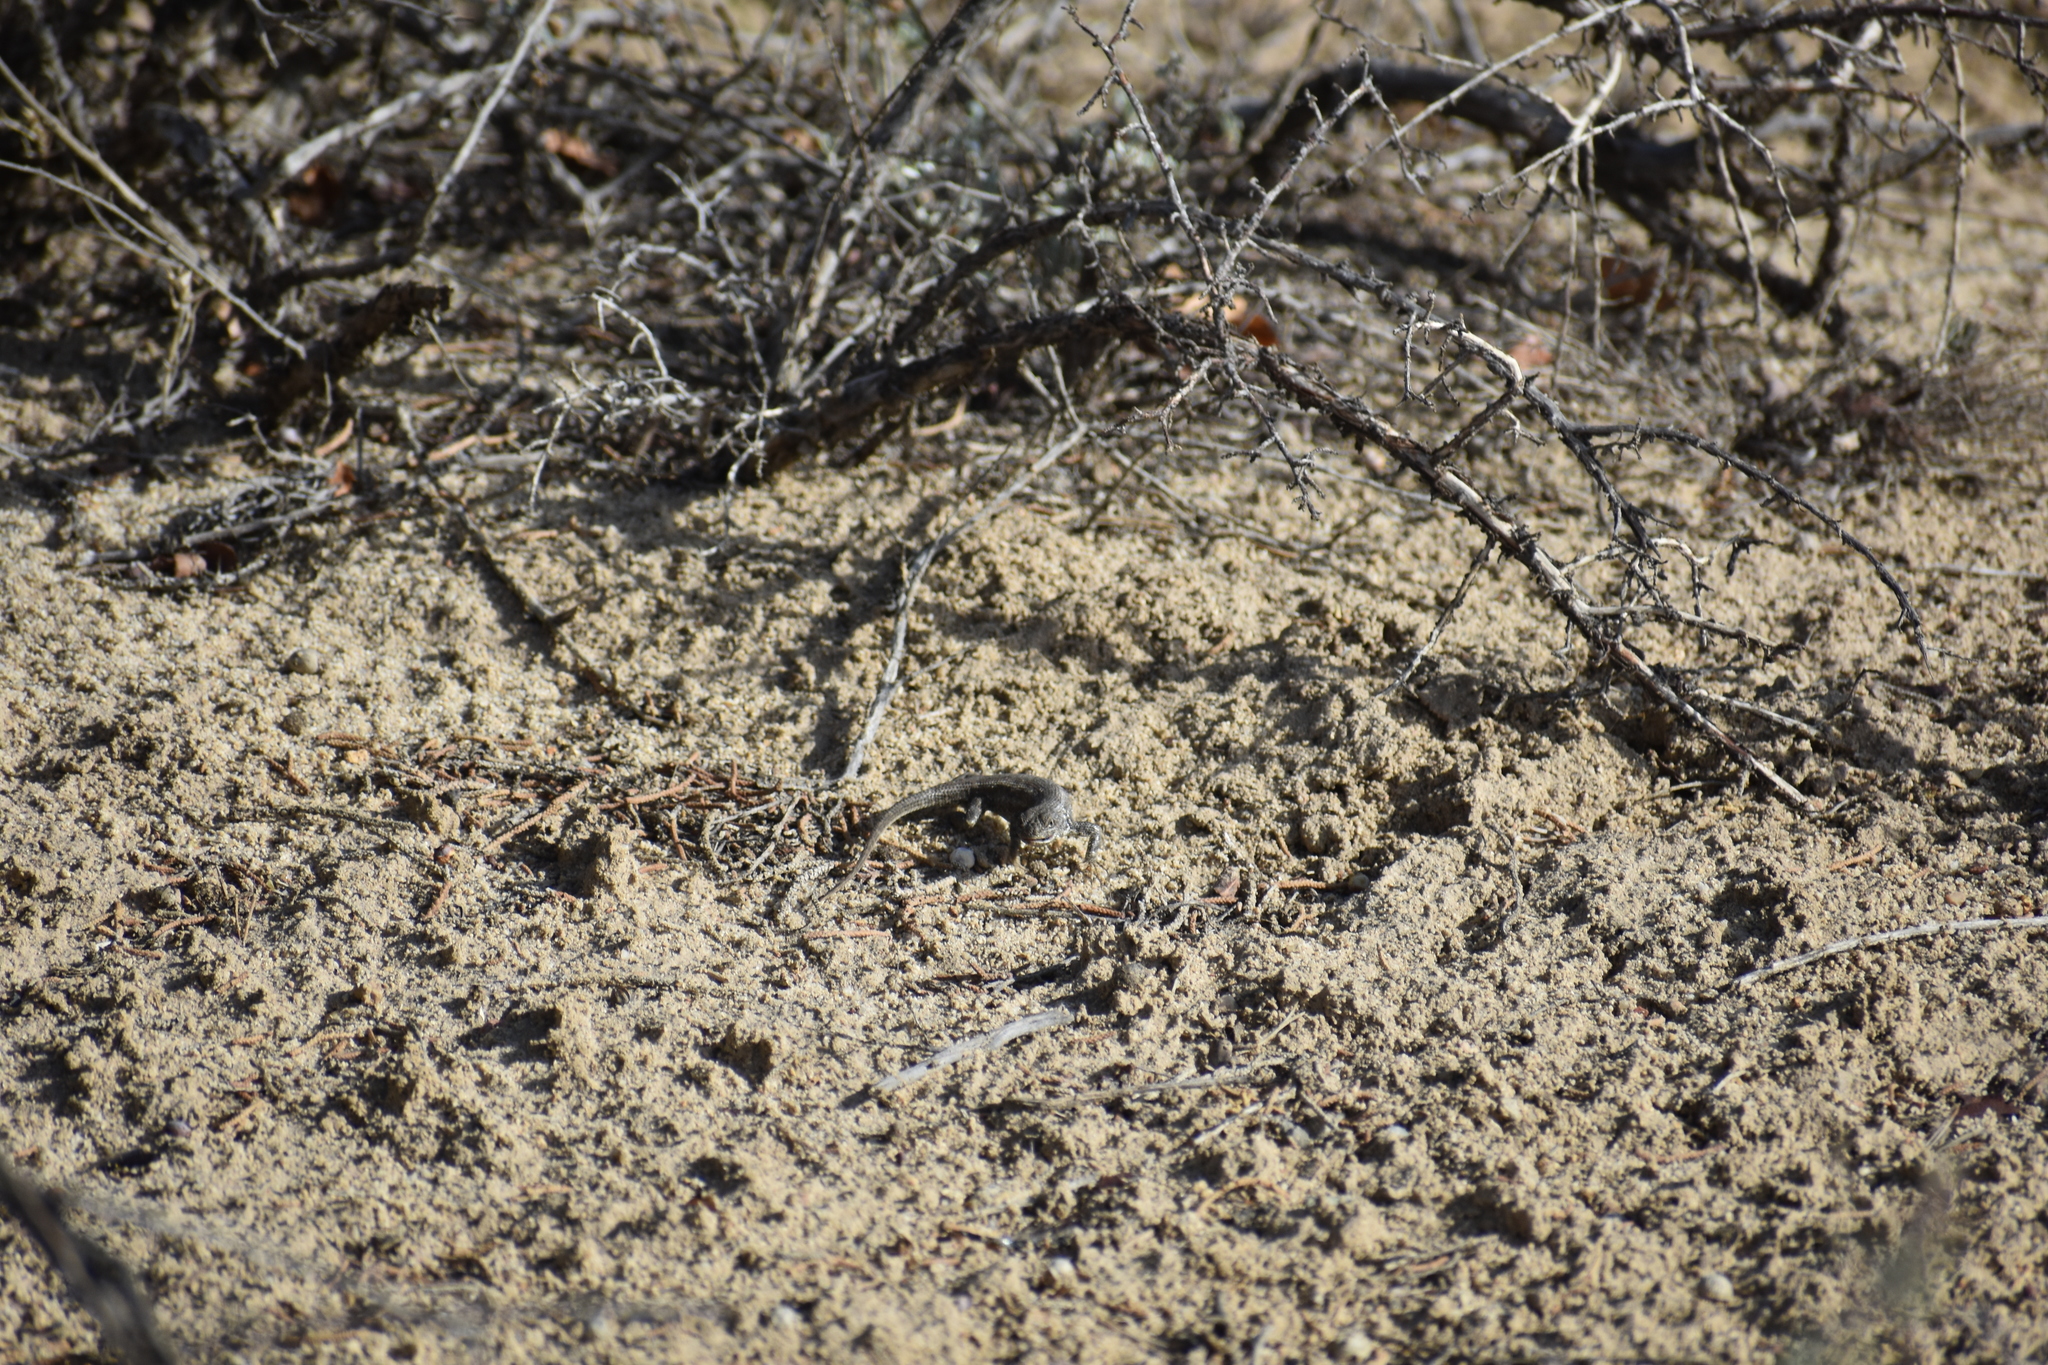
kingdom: Animalia
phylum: Chordata
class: Squamata
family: Phrynosomatidae
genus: Sceloporus
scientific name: Sceloporus graciosus
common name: Sagebrush lizard
